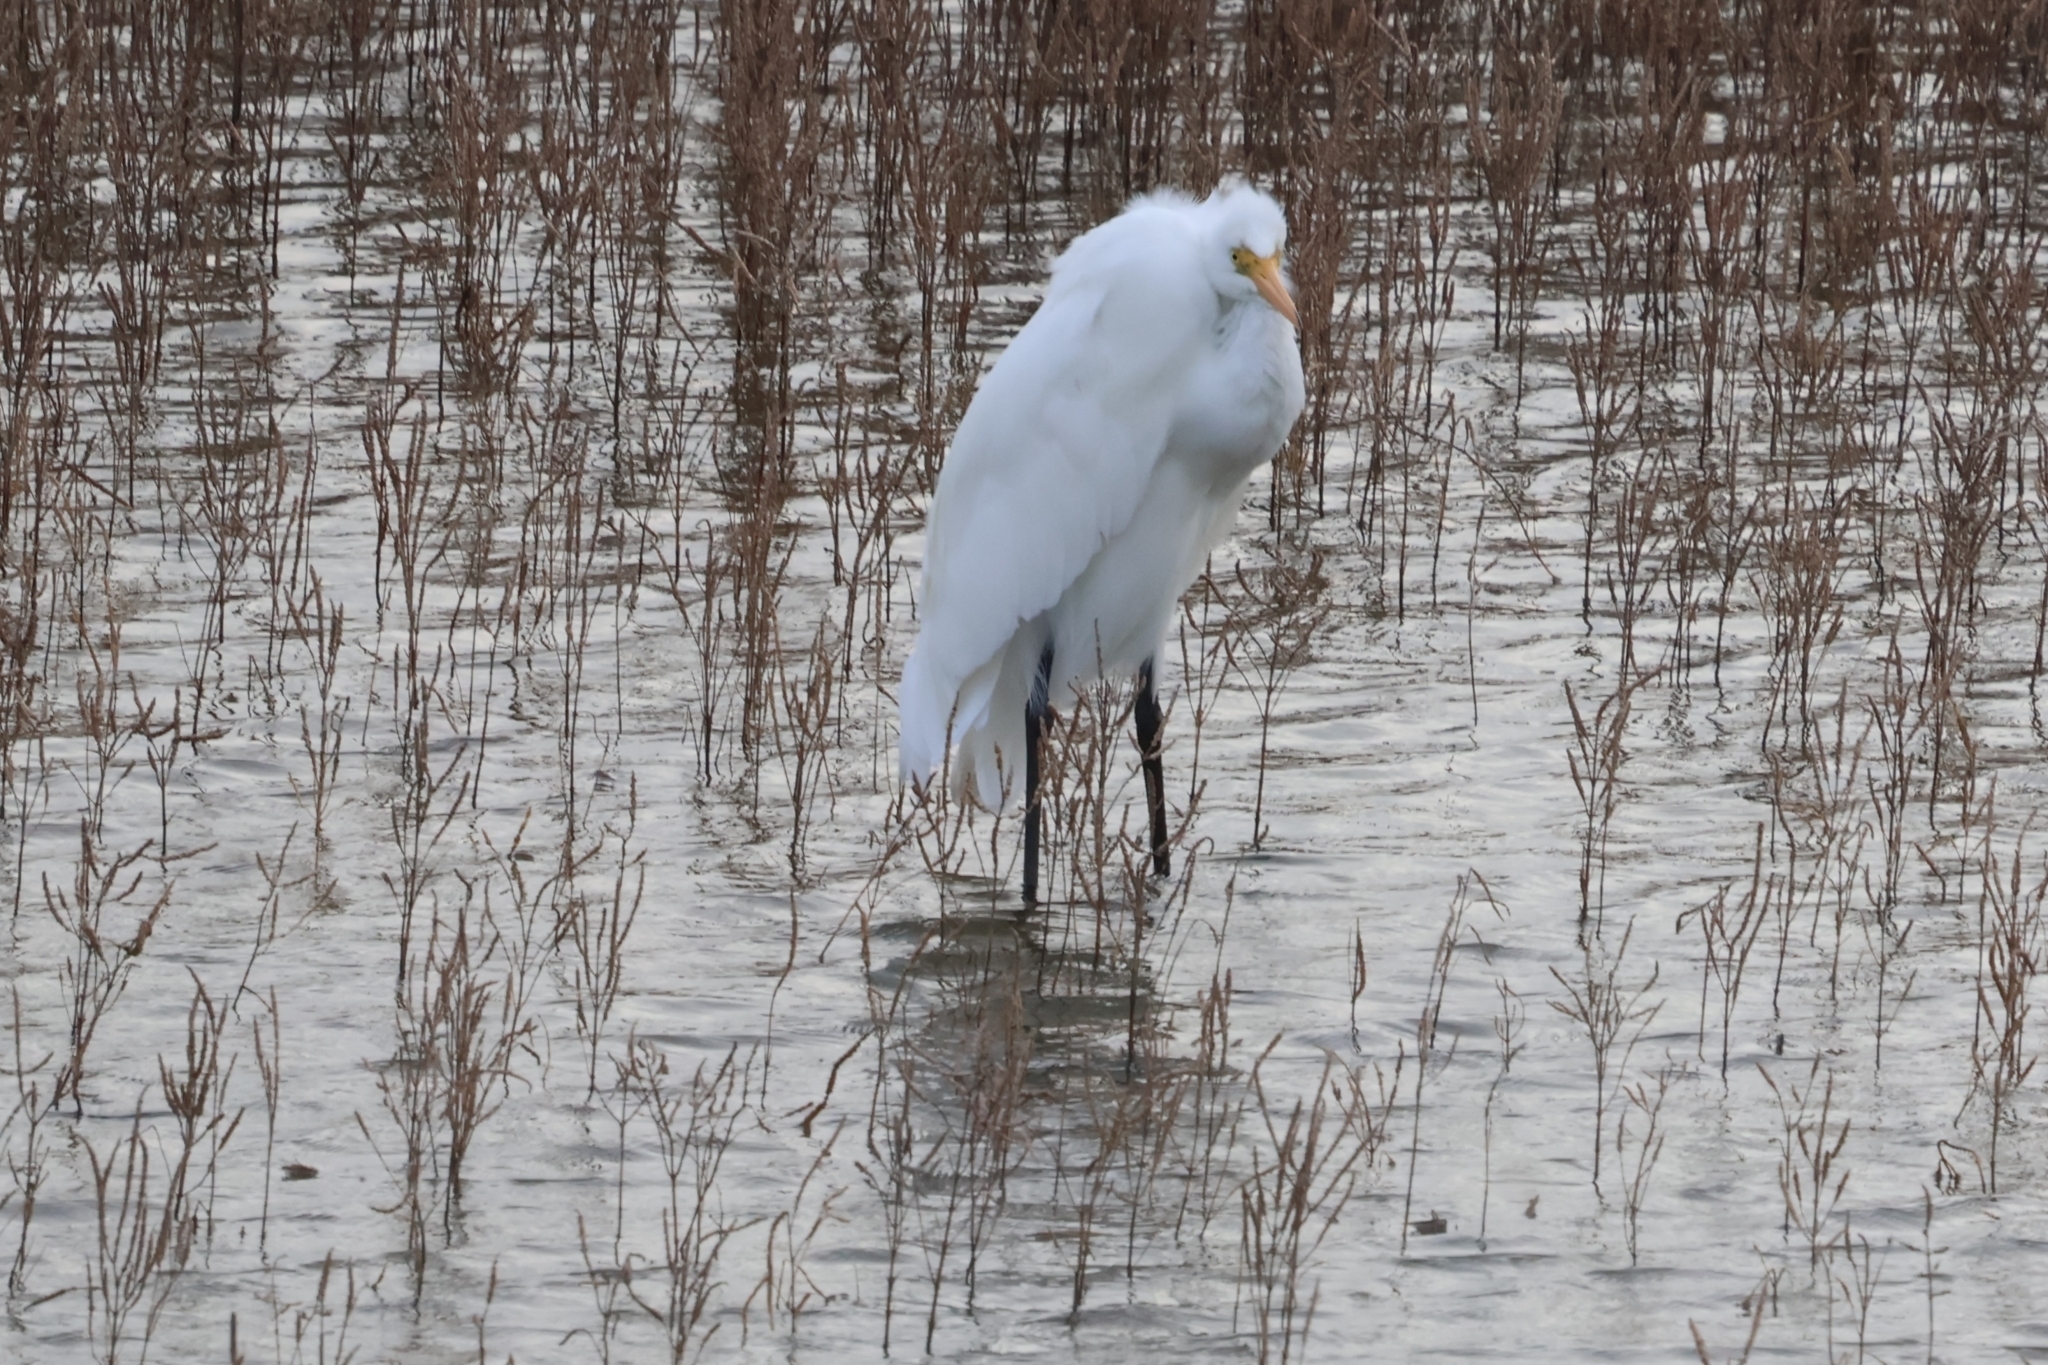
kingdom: Animalia
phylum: Chordata
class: Aves
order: Pelecaniformes
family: Ardeidae
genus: Ardea
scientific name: Ardea alba
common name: Great egret
